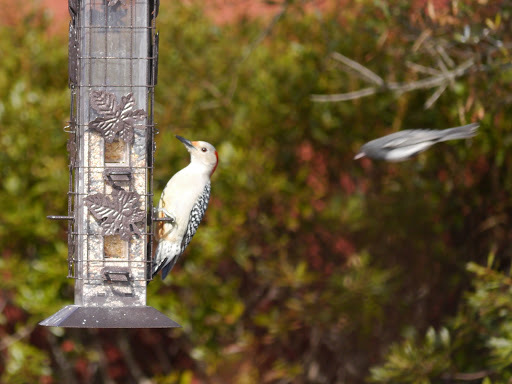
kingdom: Animalia
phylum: Chordata
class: Aves
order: Piciformes
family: Picidae
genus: Melanerpes
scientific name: Melanerpes carolinus
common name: Red-bellied woodpecker
